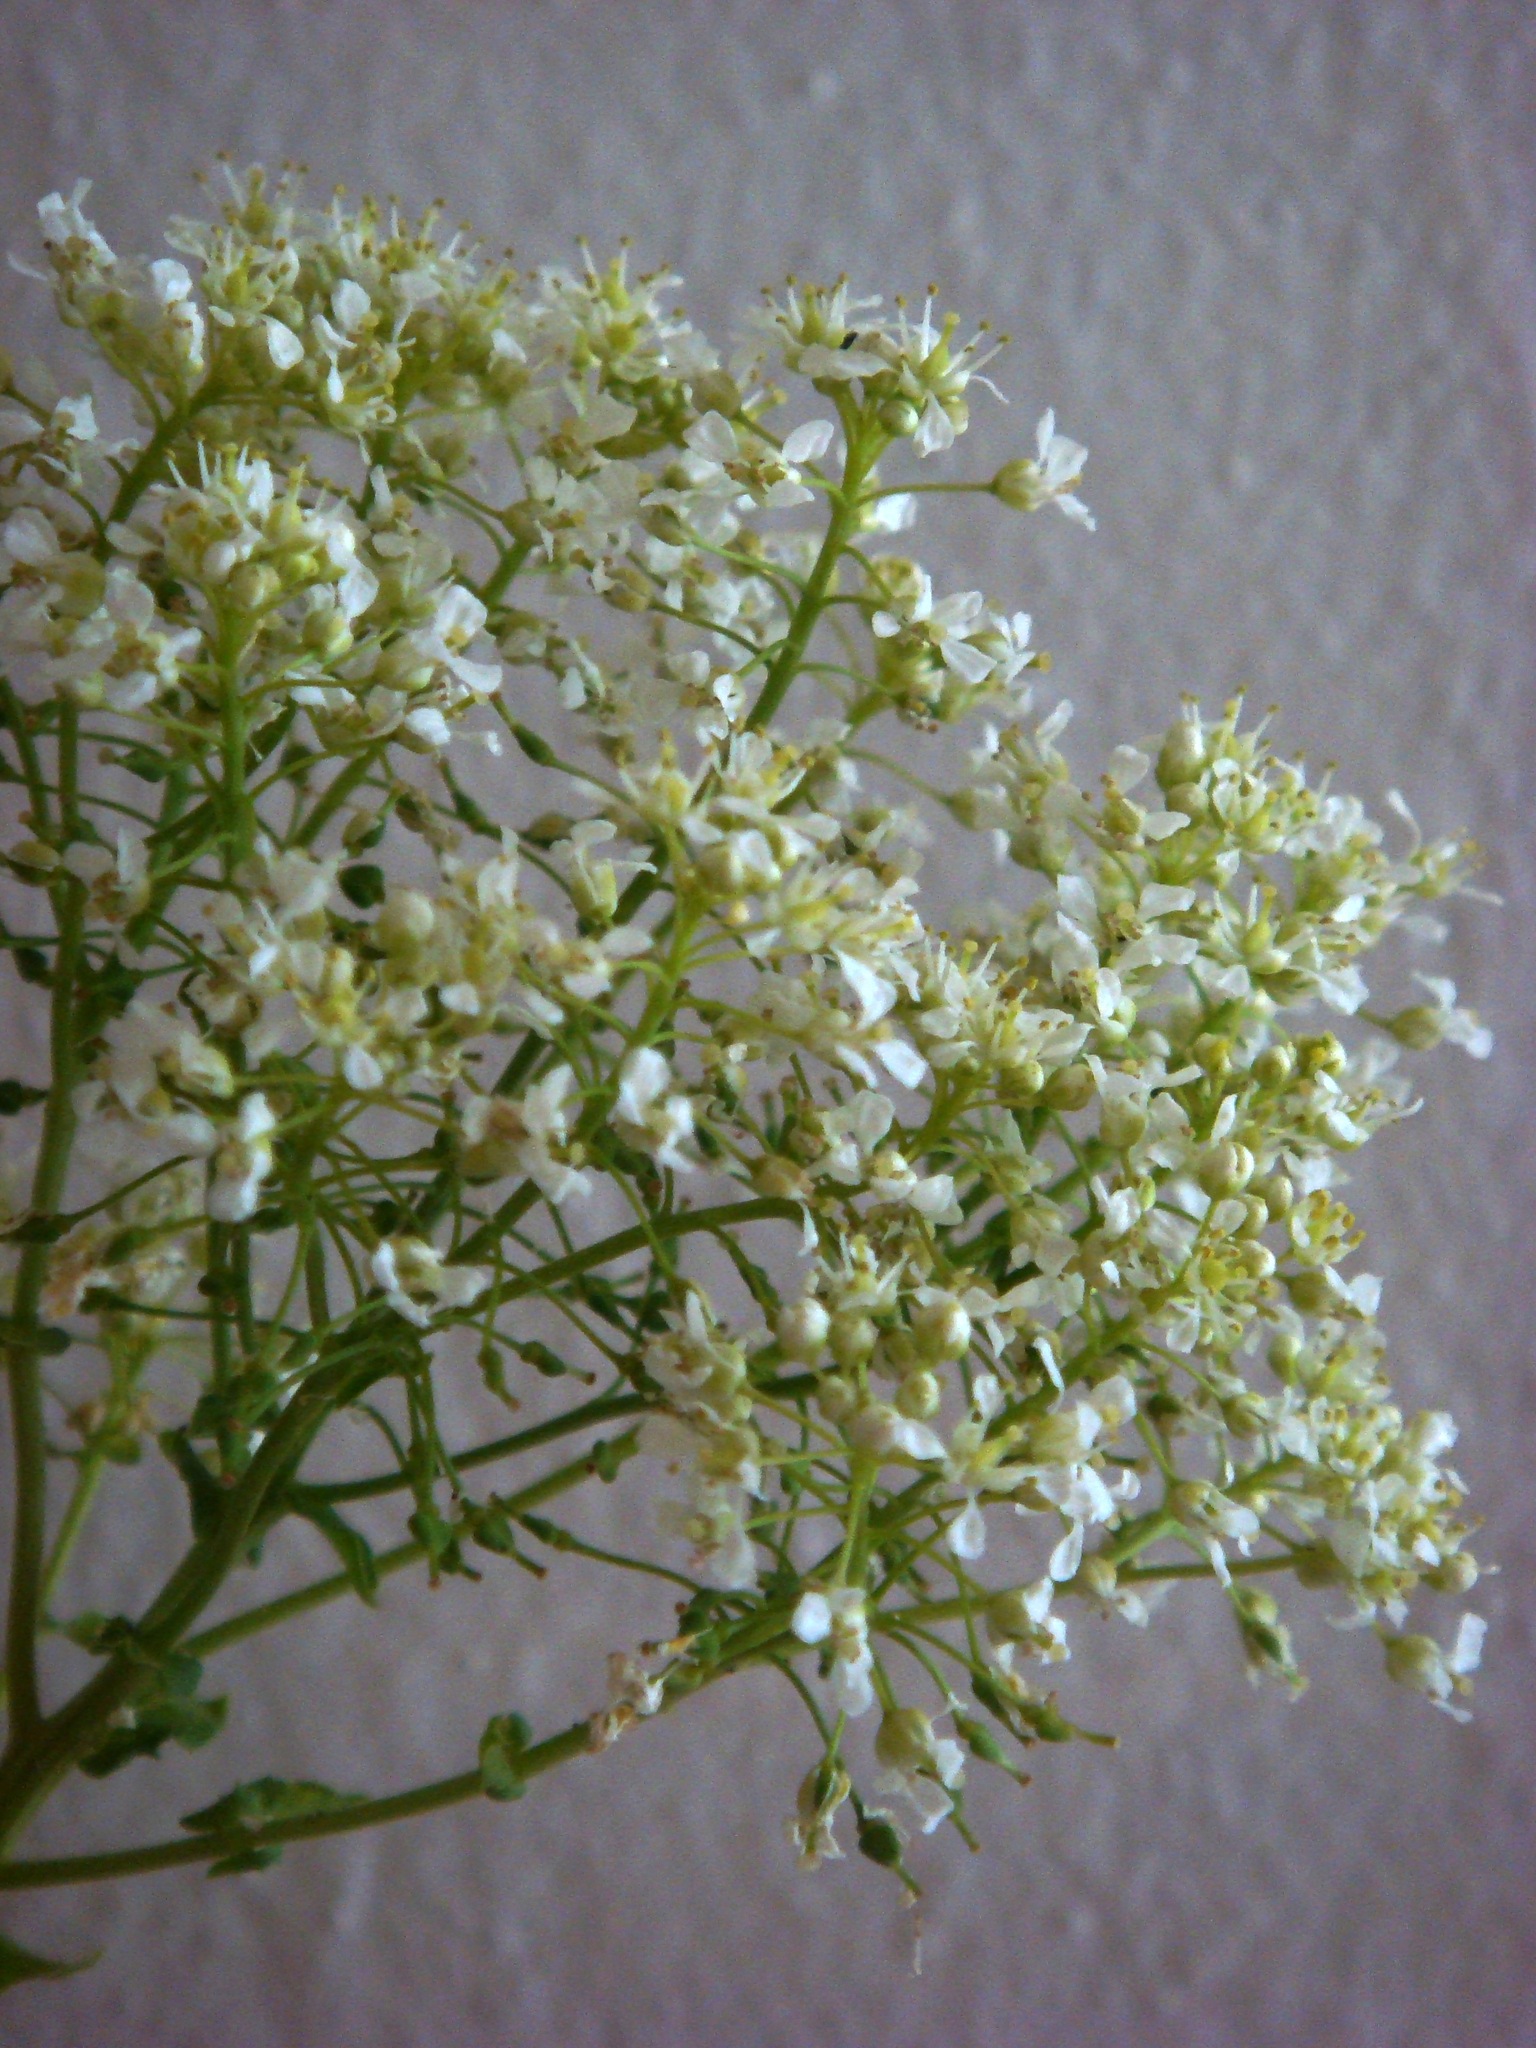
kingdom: Plantae
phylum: Tracheophyta
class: Magnoliopsida
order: Brassicales
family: Brassicaceae
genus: Lepidium
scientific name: Lepidium draba
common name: Hoary cress
